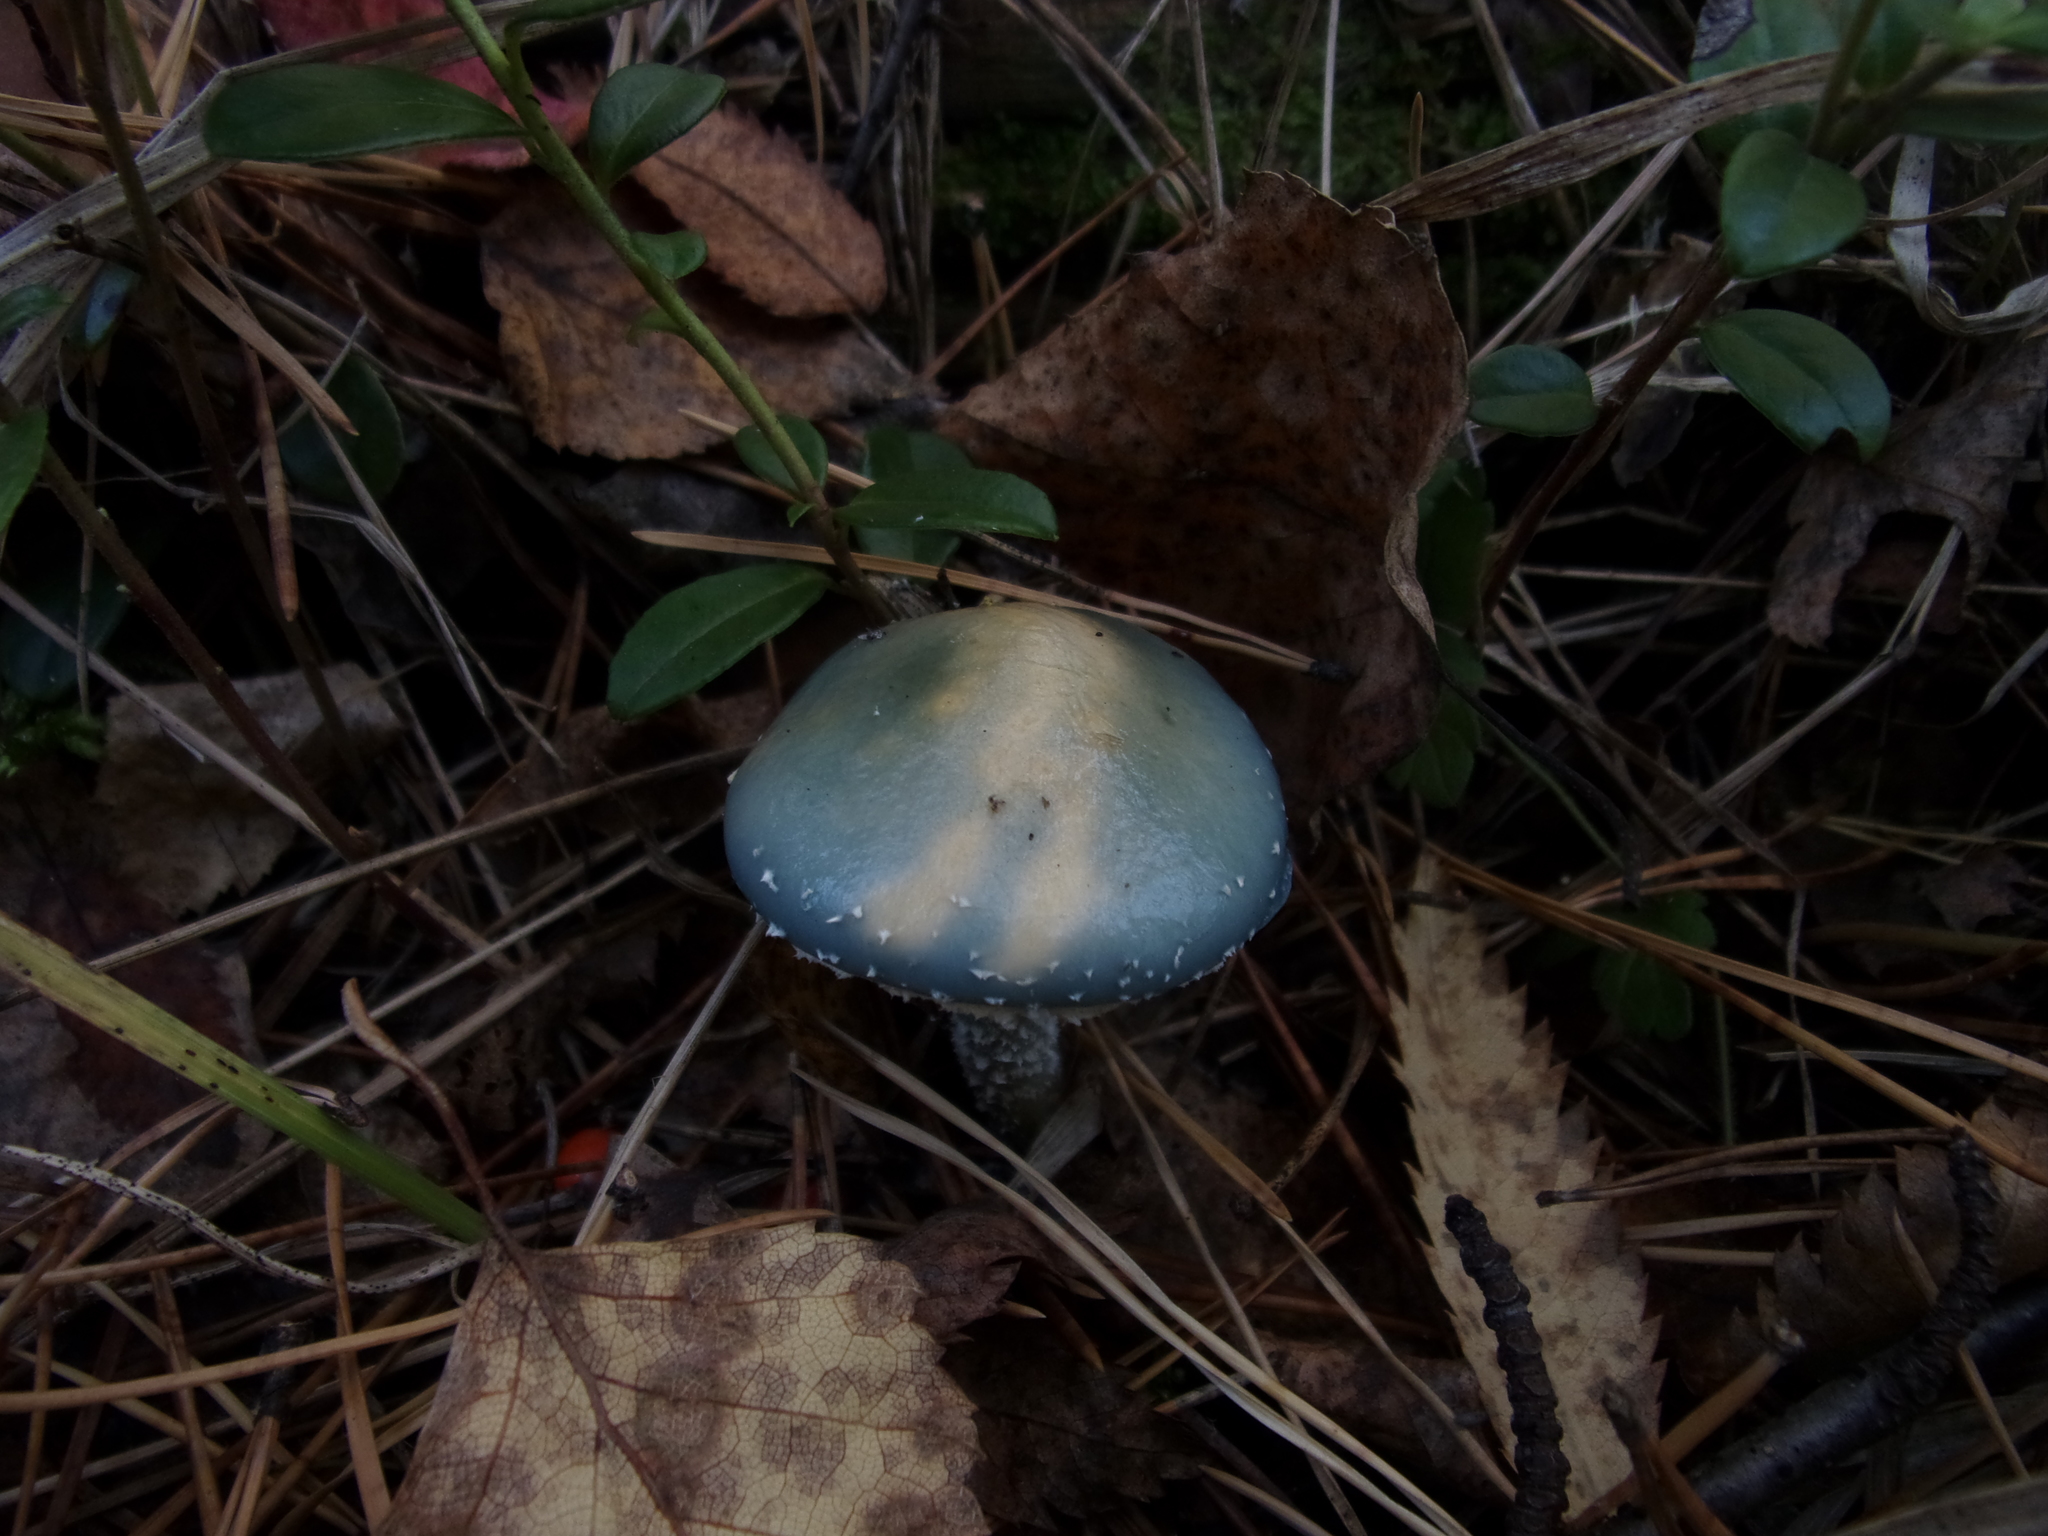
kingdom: Fungi
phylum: Basidiomycota
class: Agaricomycetes
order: Agaricales
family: Strophariaceae
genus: Stropharia
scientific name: Stropharia aeruginosa
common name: Verdigris roundhead
